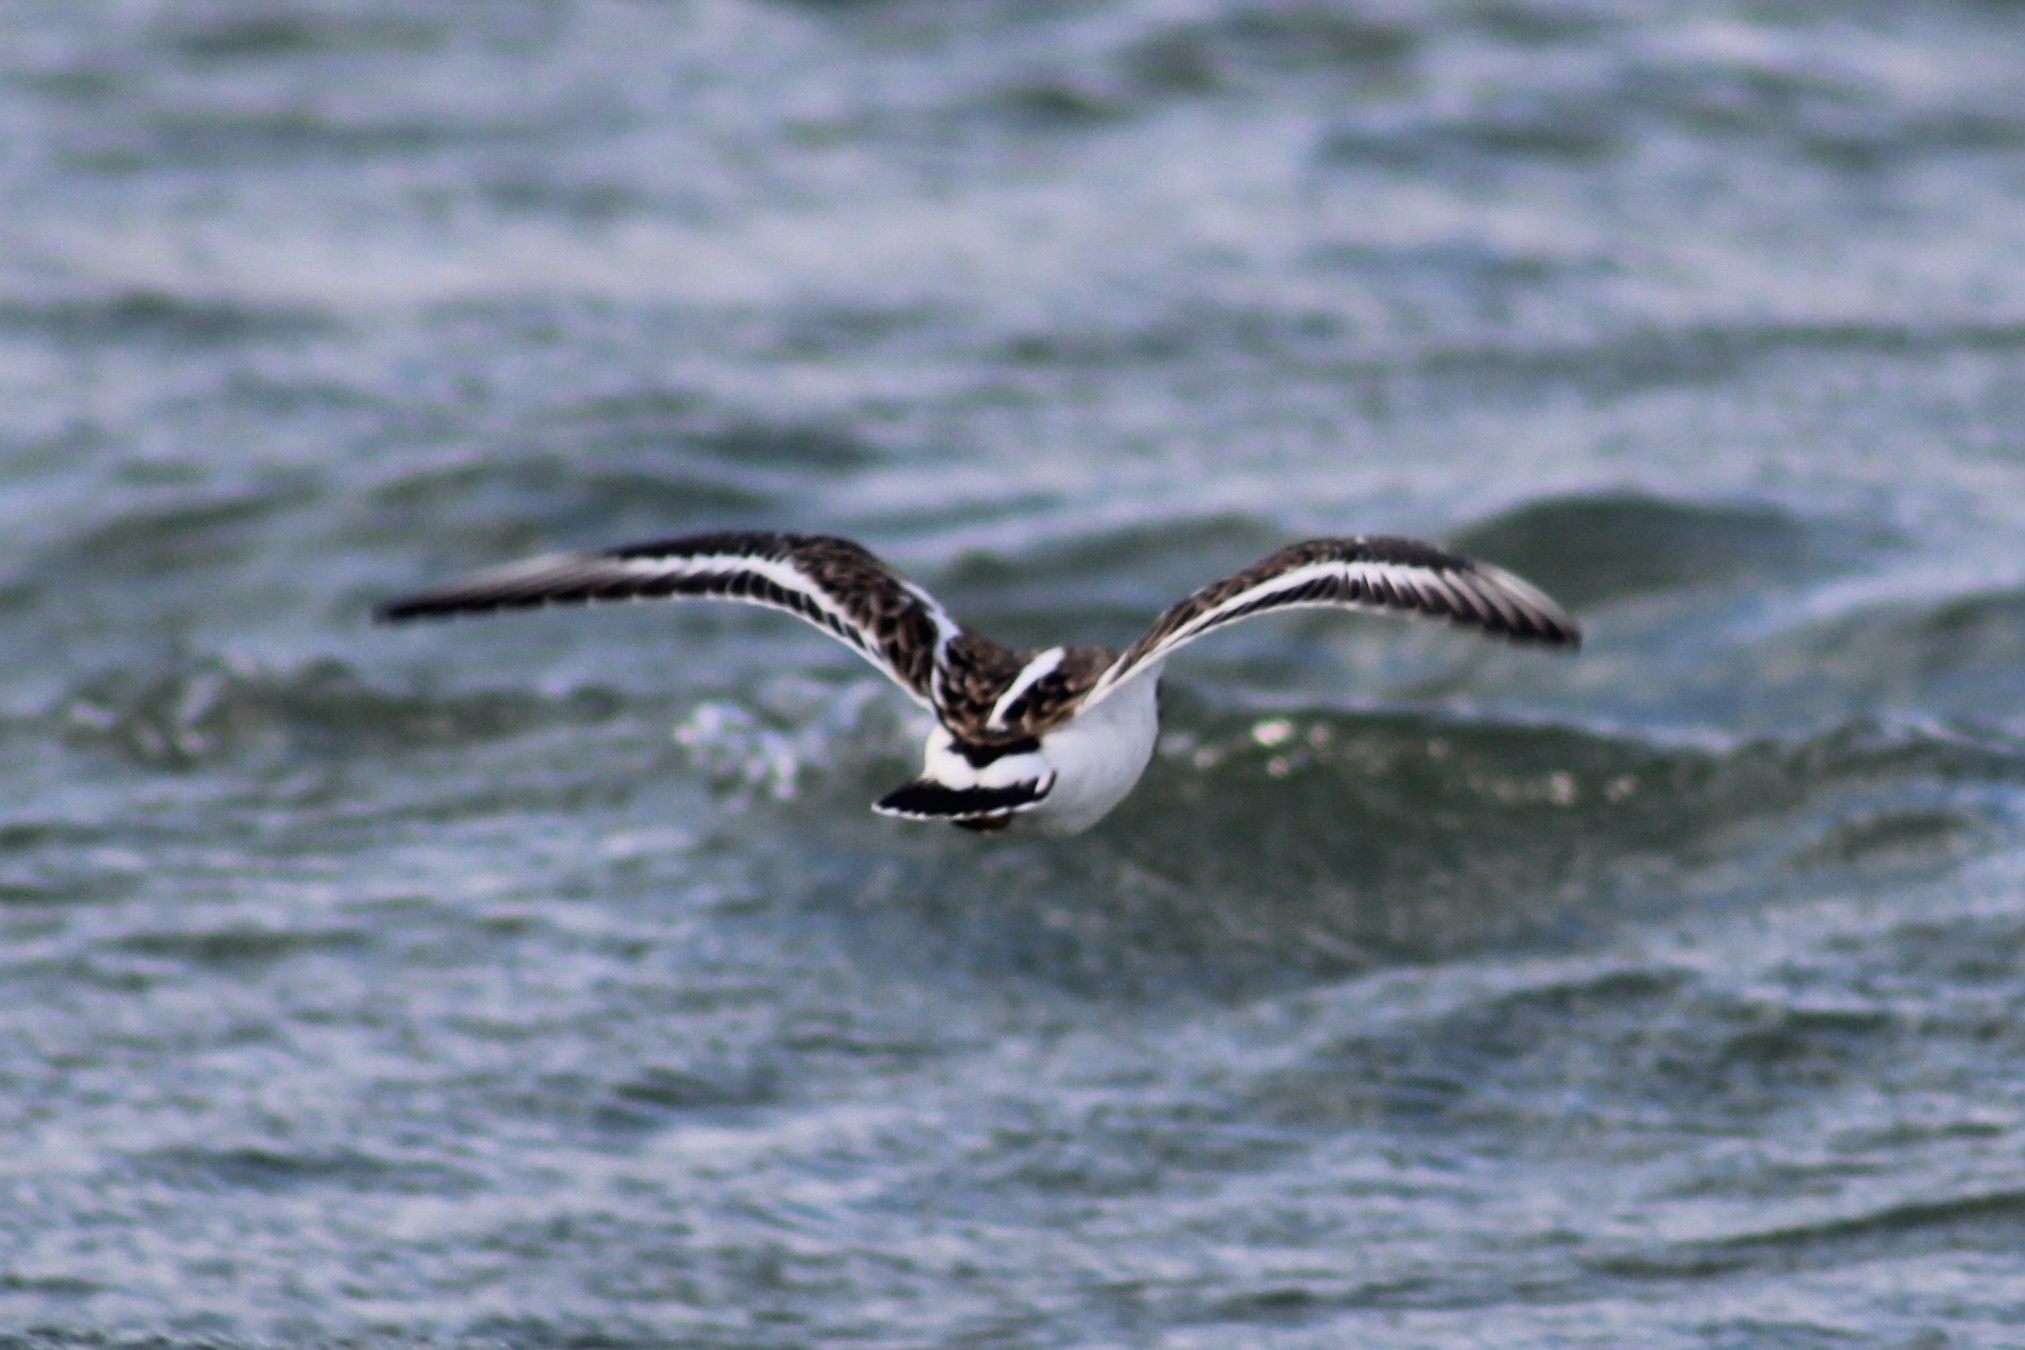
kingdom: Animalia
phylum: Chordata
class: Aves
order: Charadriiformes
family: Scolopacidae
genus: Arenaria
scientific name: Arenaria interpres
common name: Ruddy turnstone
